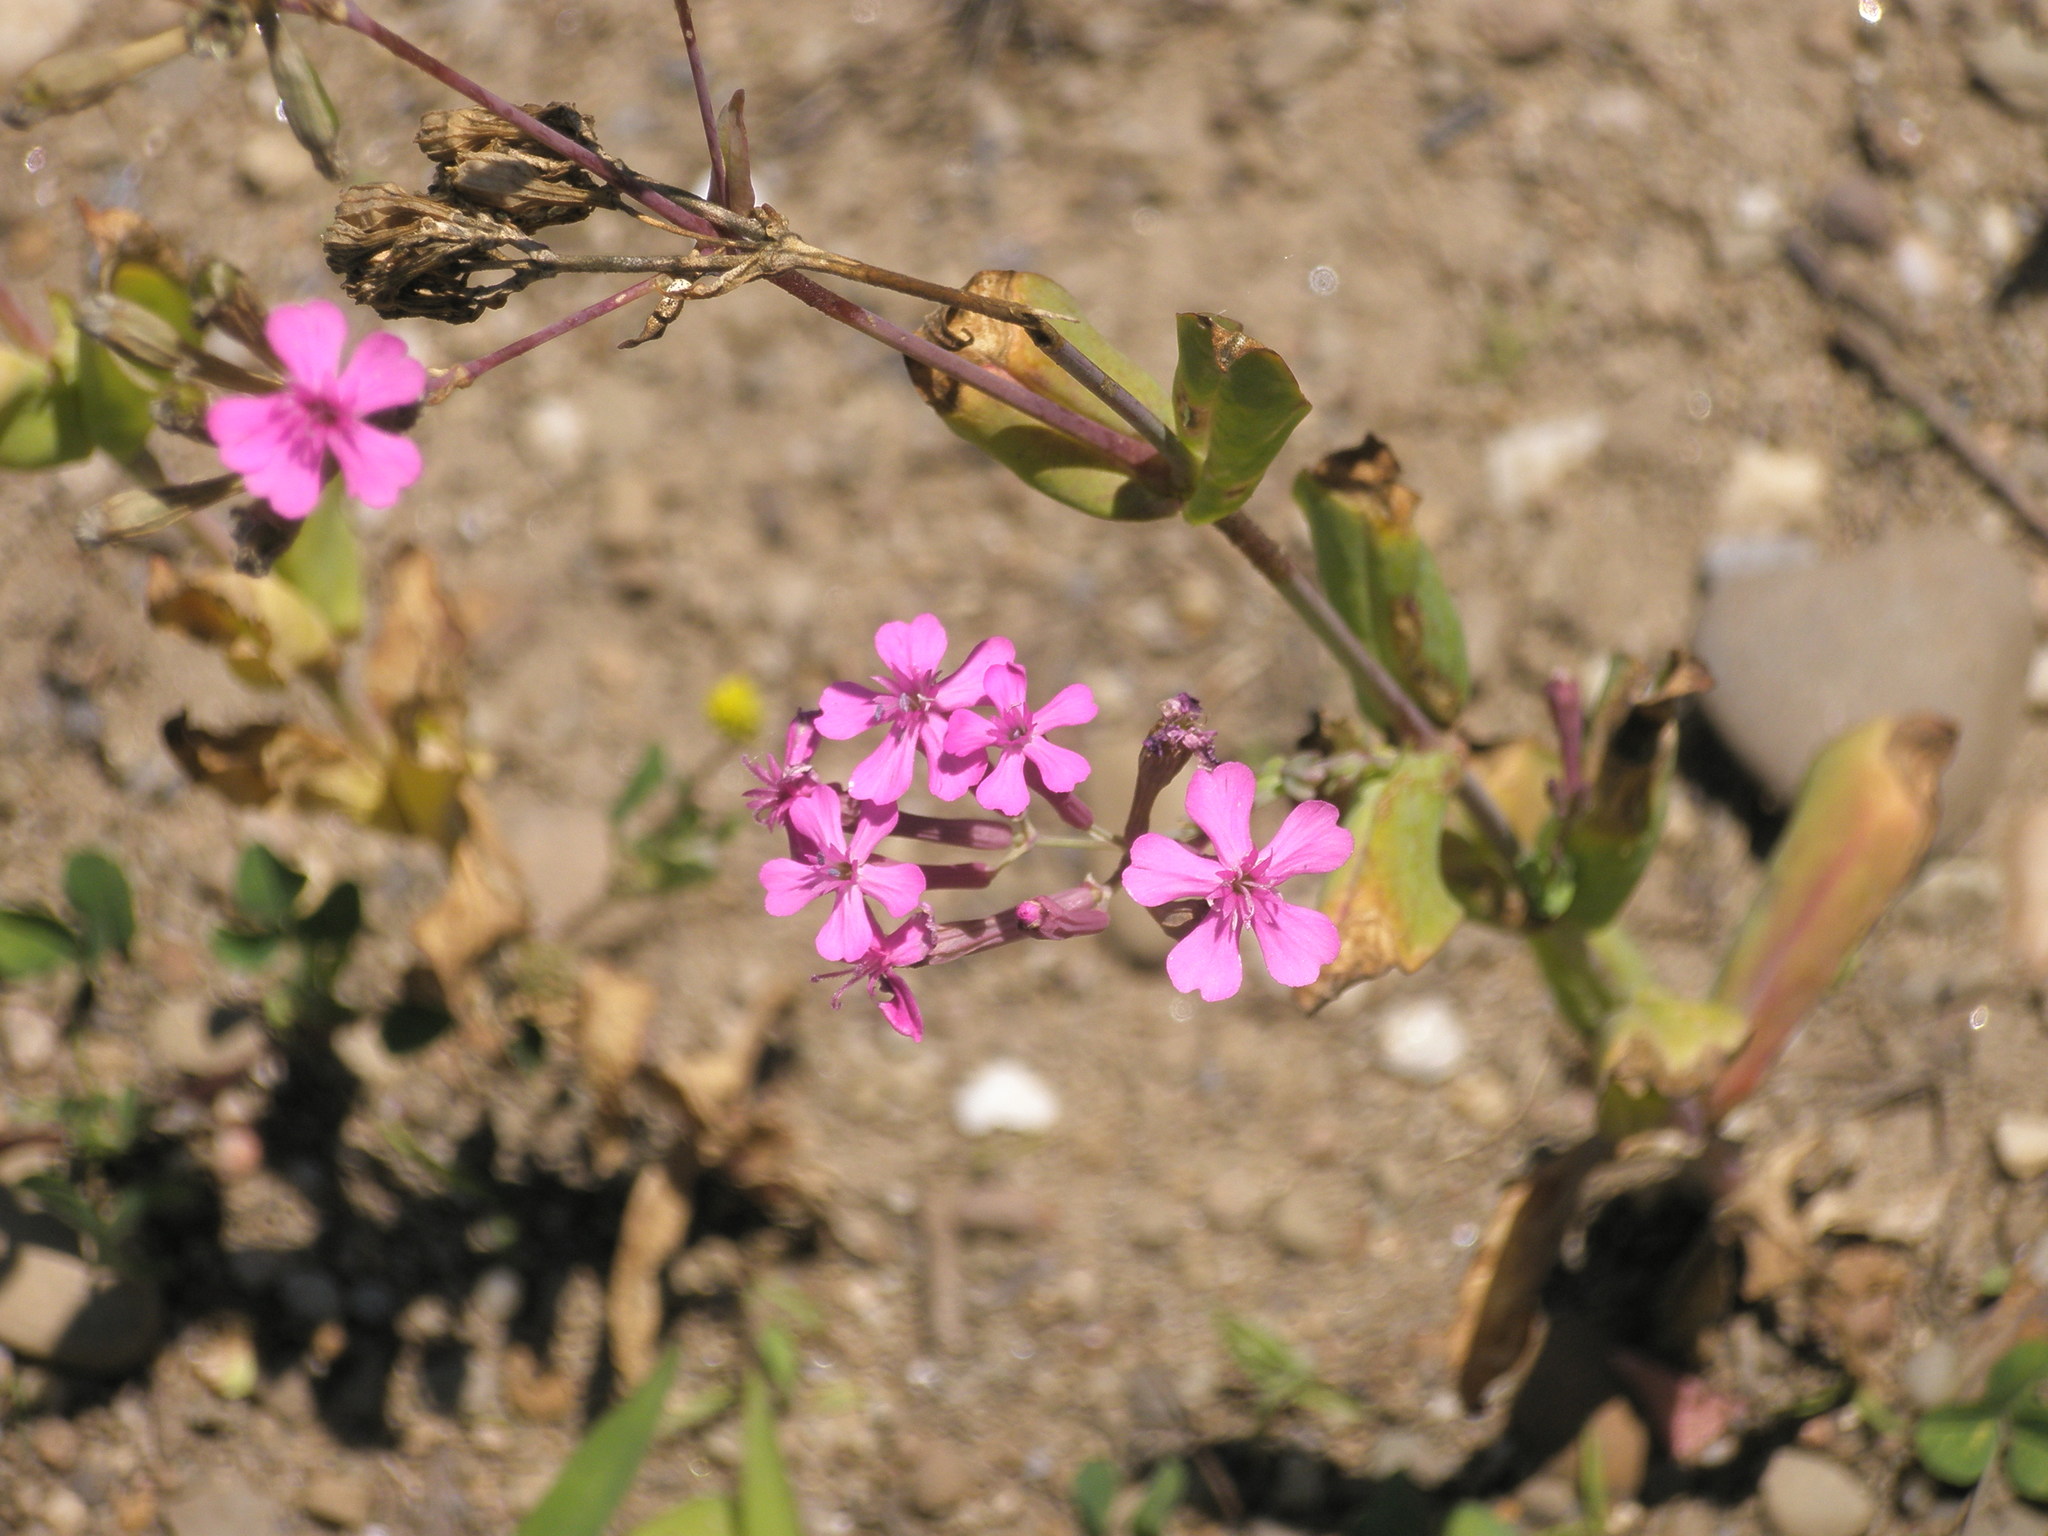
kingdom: Plantae
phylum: Tracheophyta
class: Magnoliopsida
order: Caryophyllales
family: Caryophyllaceae
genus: Atocion
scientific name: Atocion armeria
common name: Sweet william catchfly
